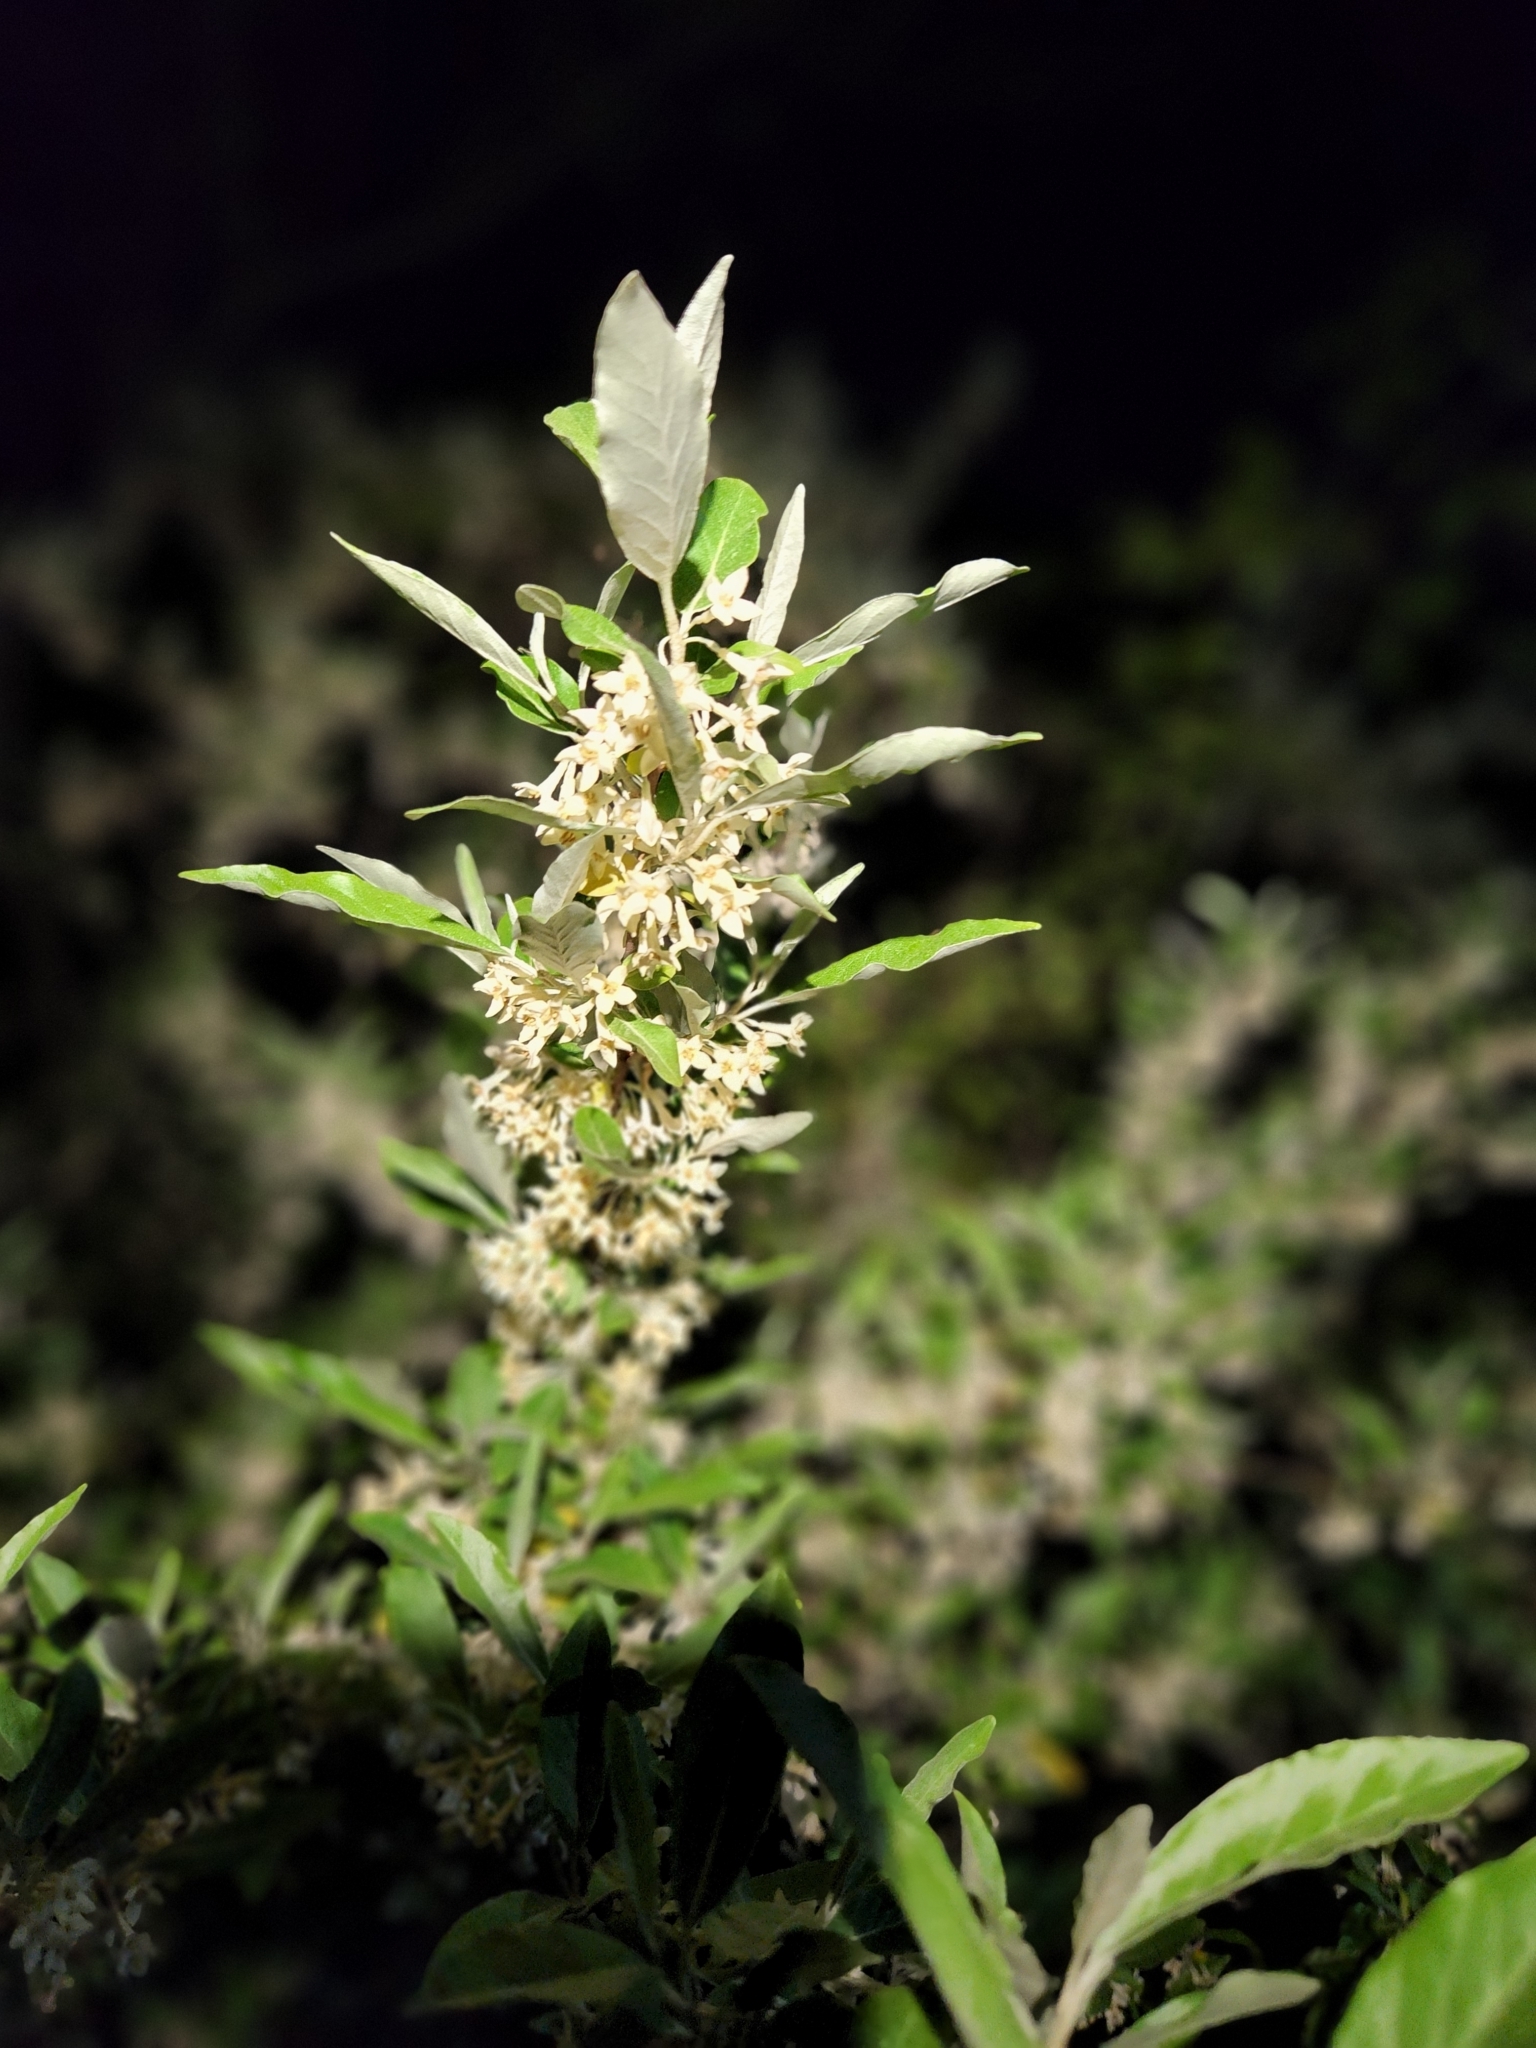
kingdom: Plantae
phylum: Tracheophyta
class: Magnoliopsida
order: Rosales
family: Elaeagnaceae
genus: Elaeagnus
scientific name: Elaeagnus umbellata
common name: Autumn olive
